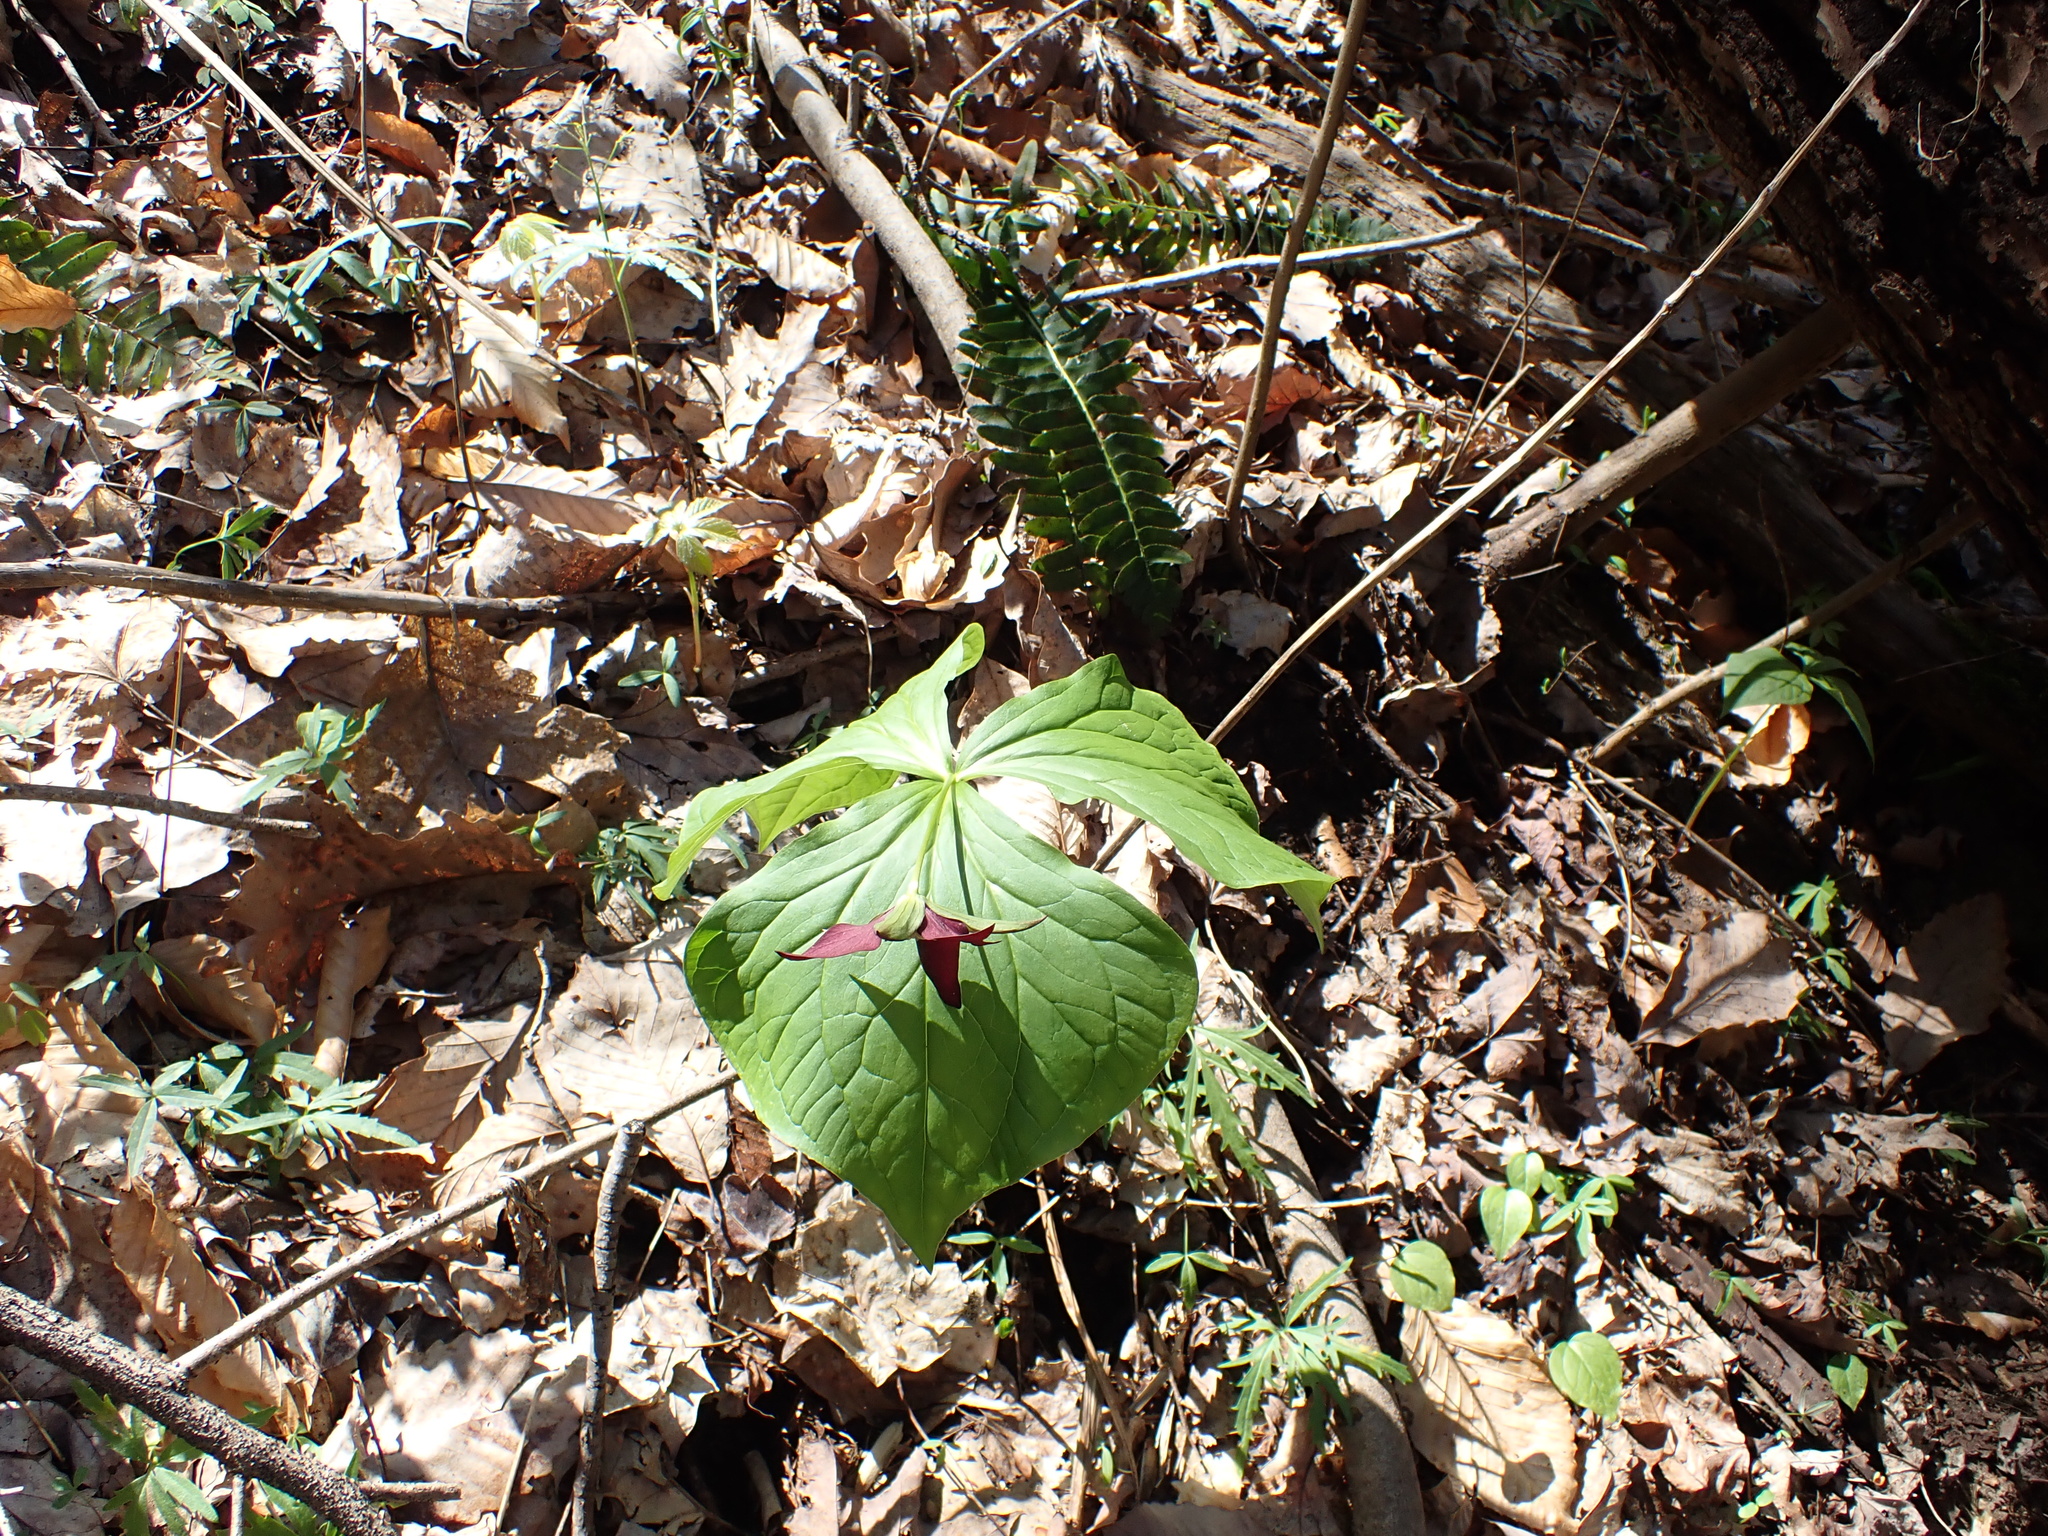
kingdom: Plantae
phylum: Tracheophyta
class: Liliopsida
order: Liliales
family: Melanthiaceae
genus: Trillium
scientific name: Trillium erectum
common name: Purple trillium
